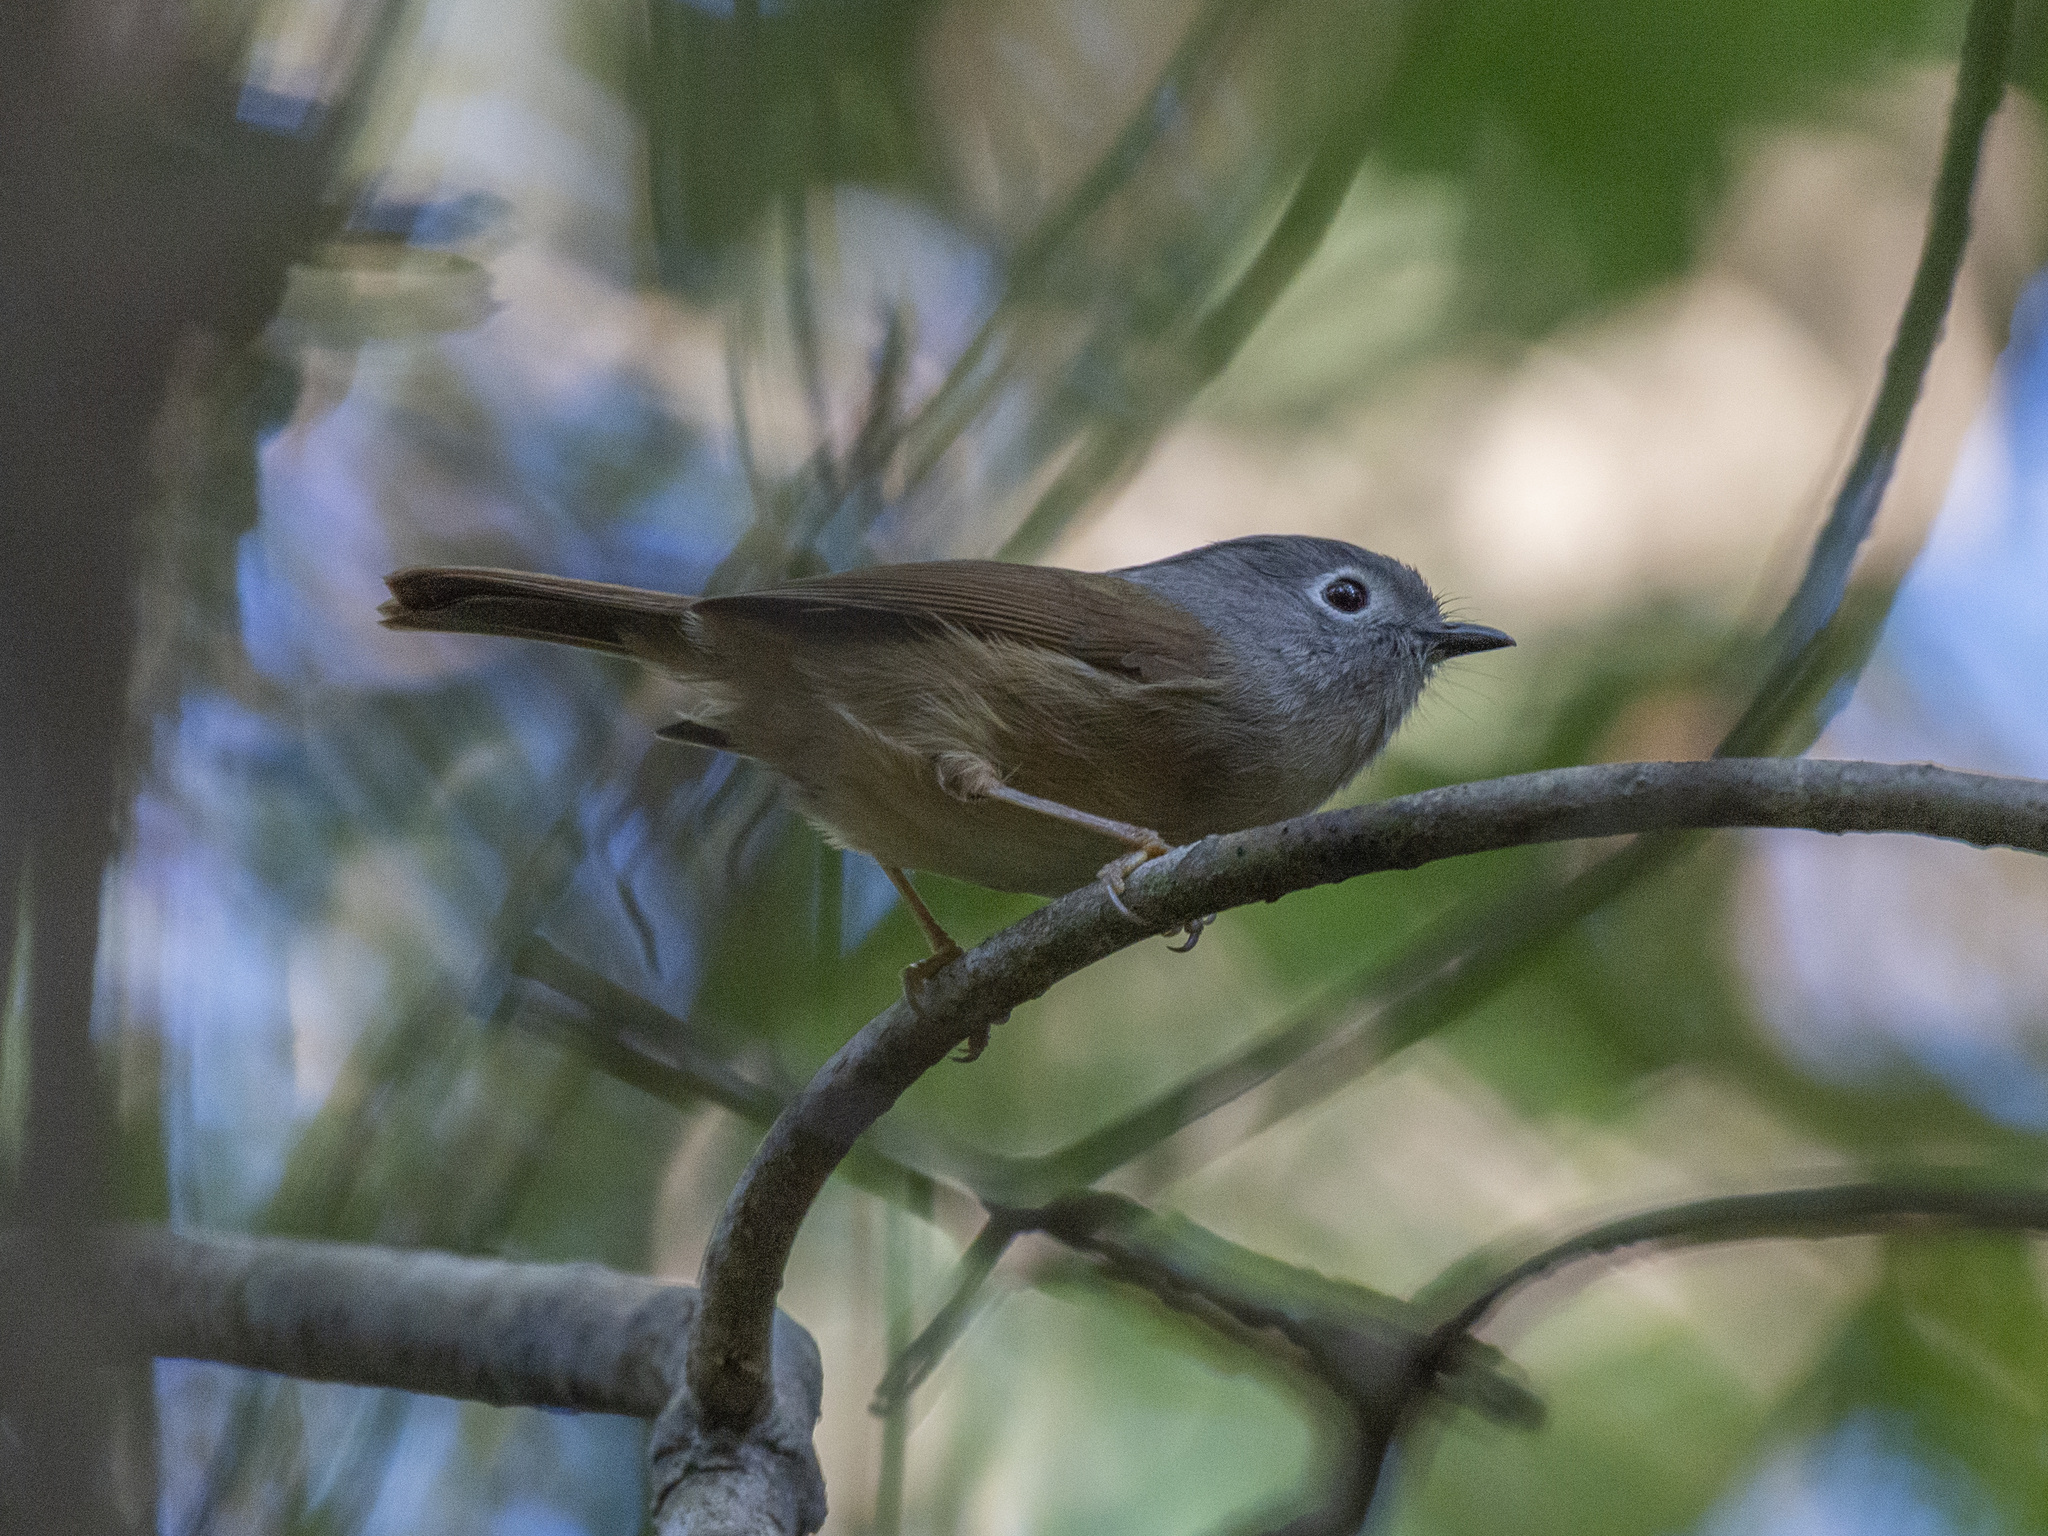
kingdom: Animalia
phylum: Chordata
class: Aves
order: Passeriformes
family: Pellorneidae
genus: Alcippe
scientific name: Alcippe hueti
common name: Huet's fulvetta
